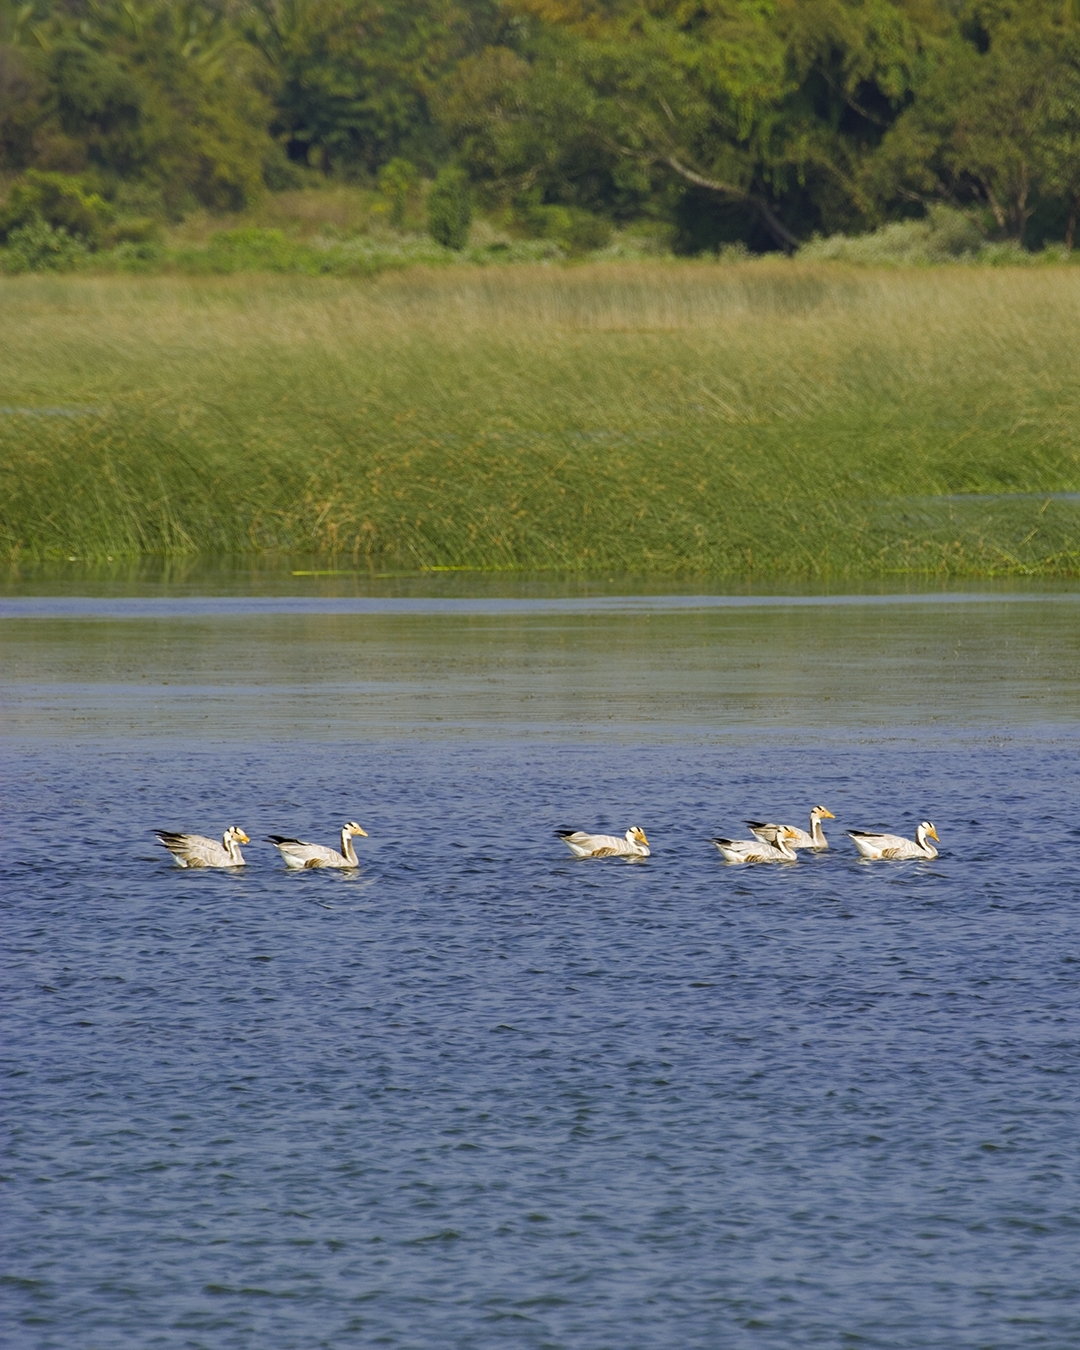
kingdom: Animalia
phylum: Chordata
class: Aves
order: Anseriformes
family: Anatidae
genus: Anser
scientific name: Anser indicus
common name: Bar-headed goose
